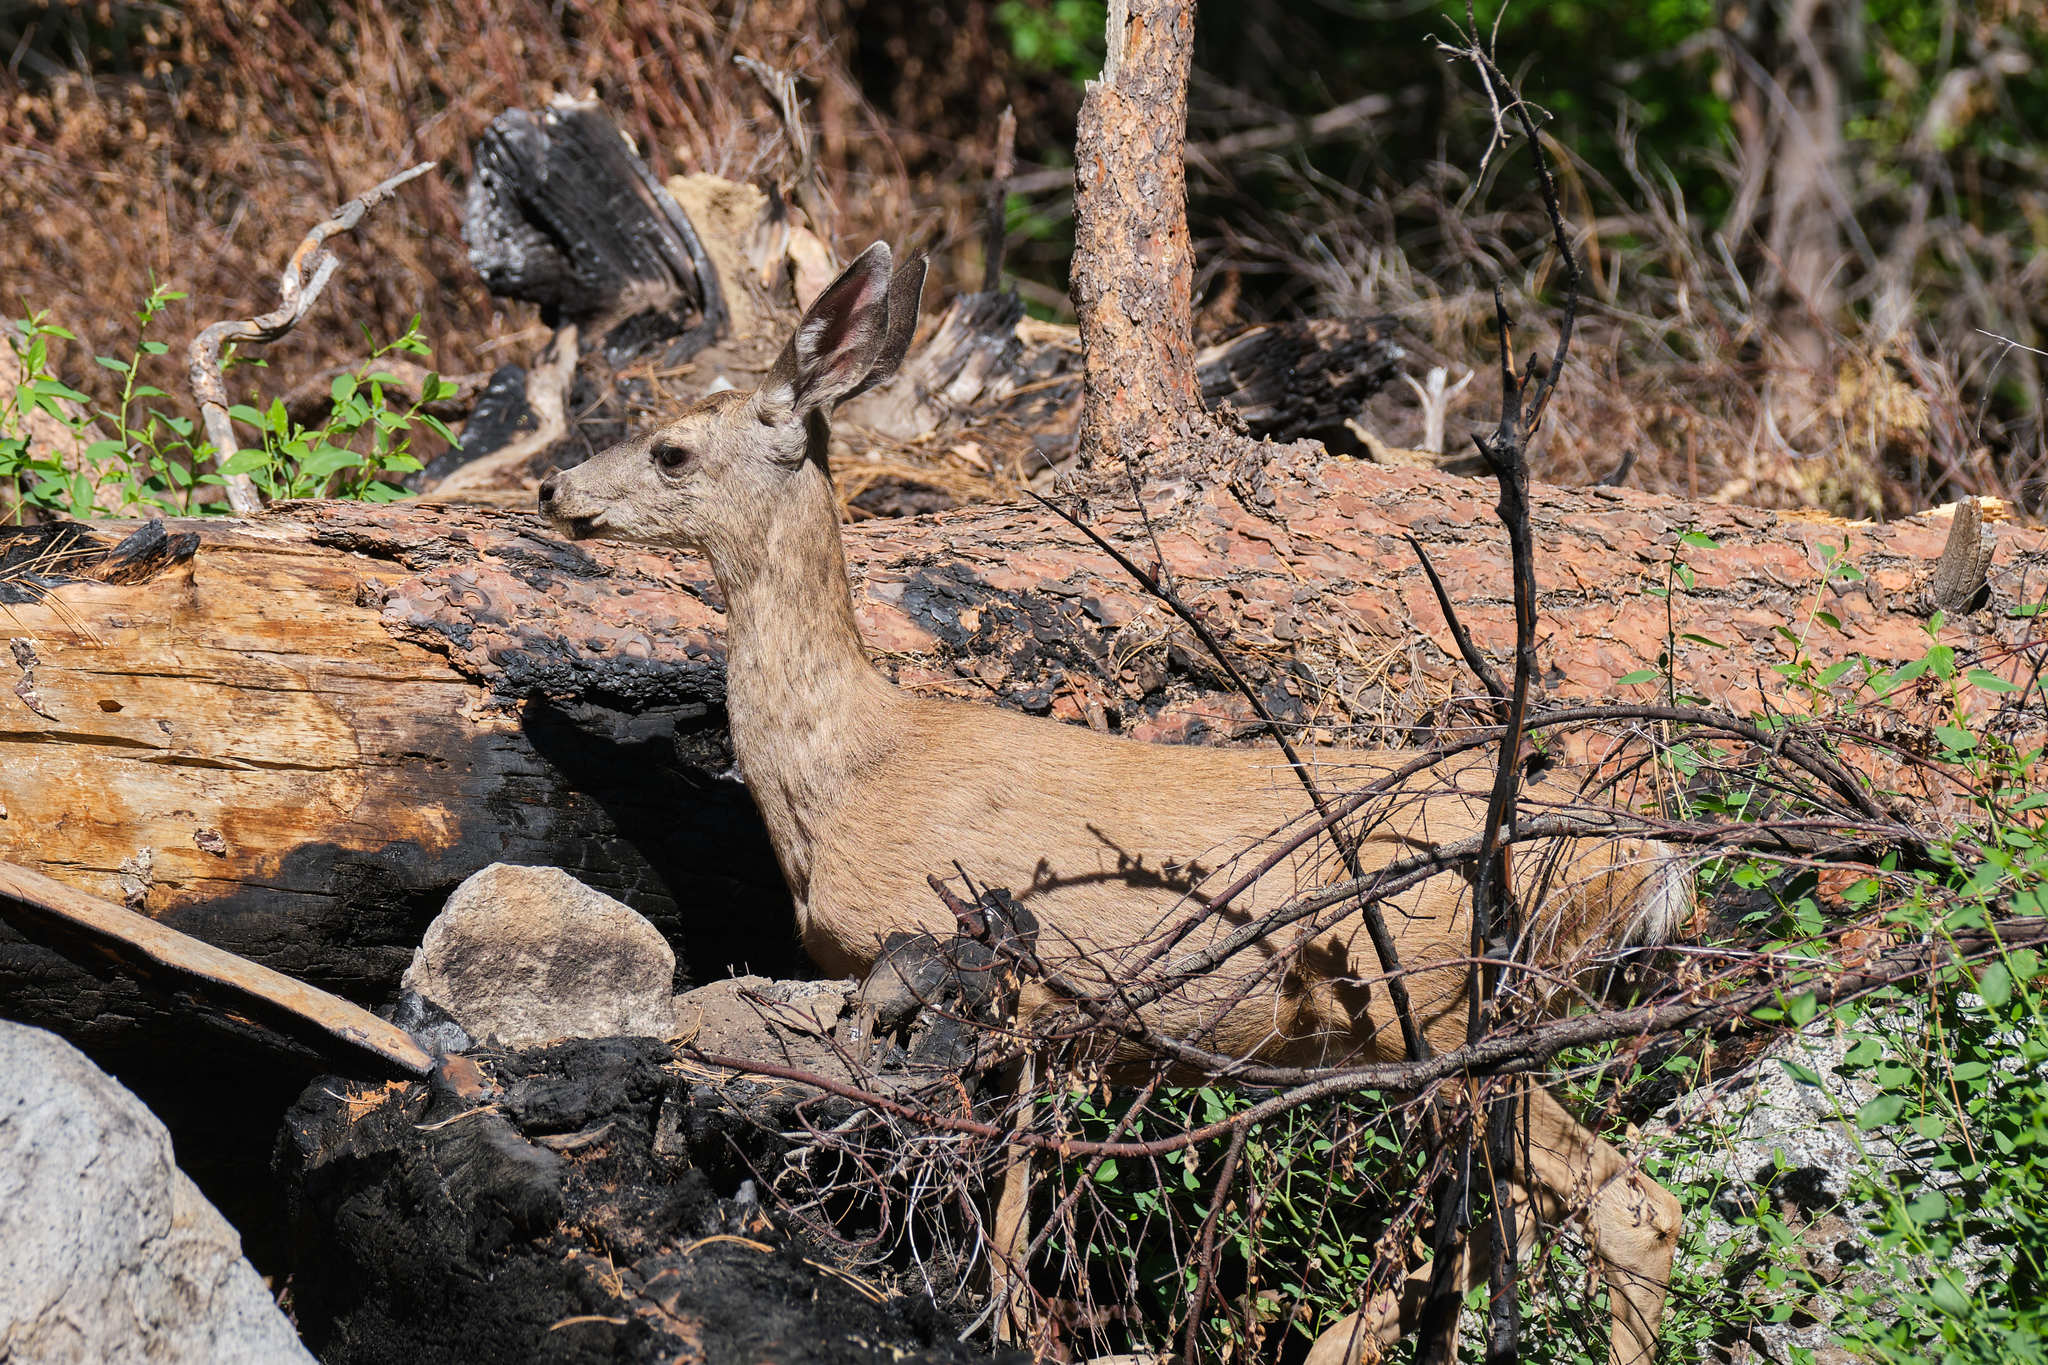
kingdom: Animalia
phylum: Chordata
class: Mammalia
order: Artiodactyla
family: Cervidae
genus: Odocoileus
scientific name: Odocoileus hemionus
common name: Mule deer
